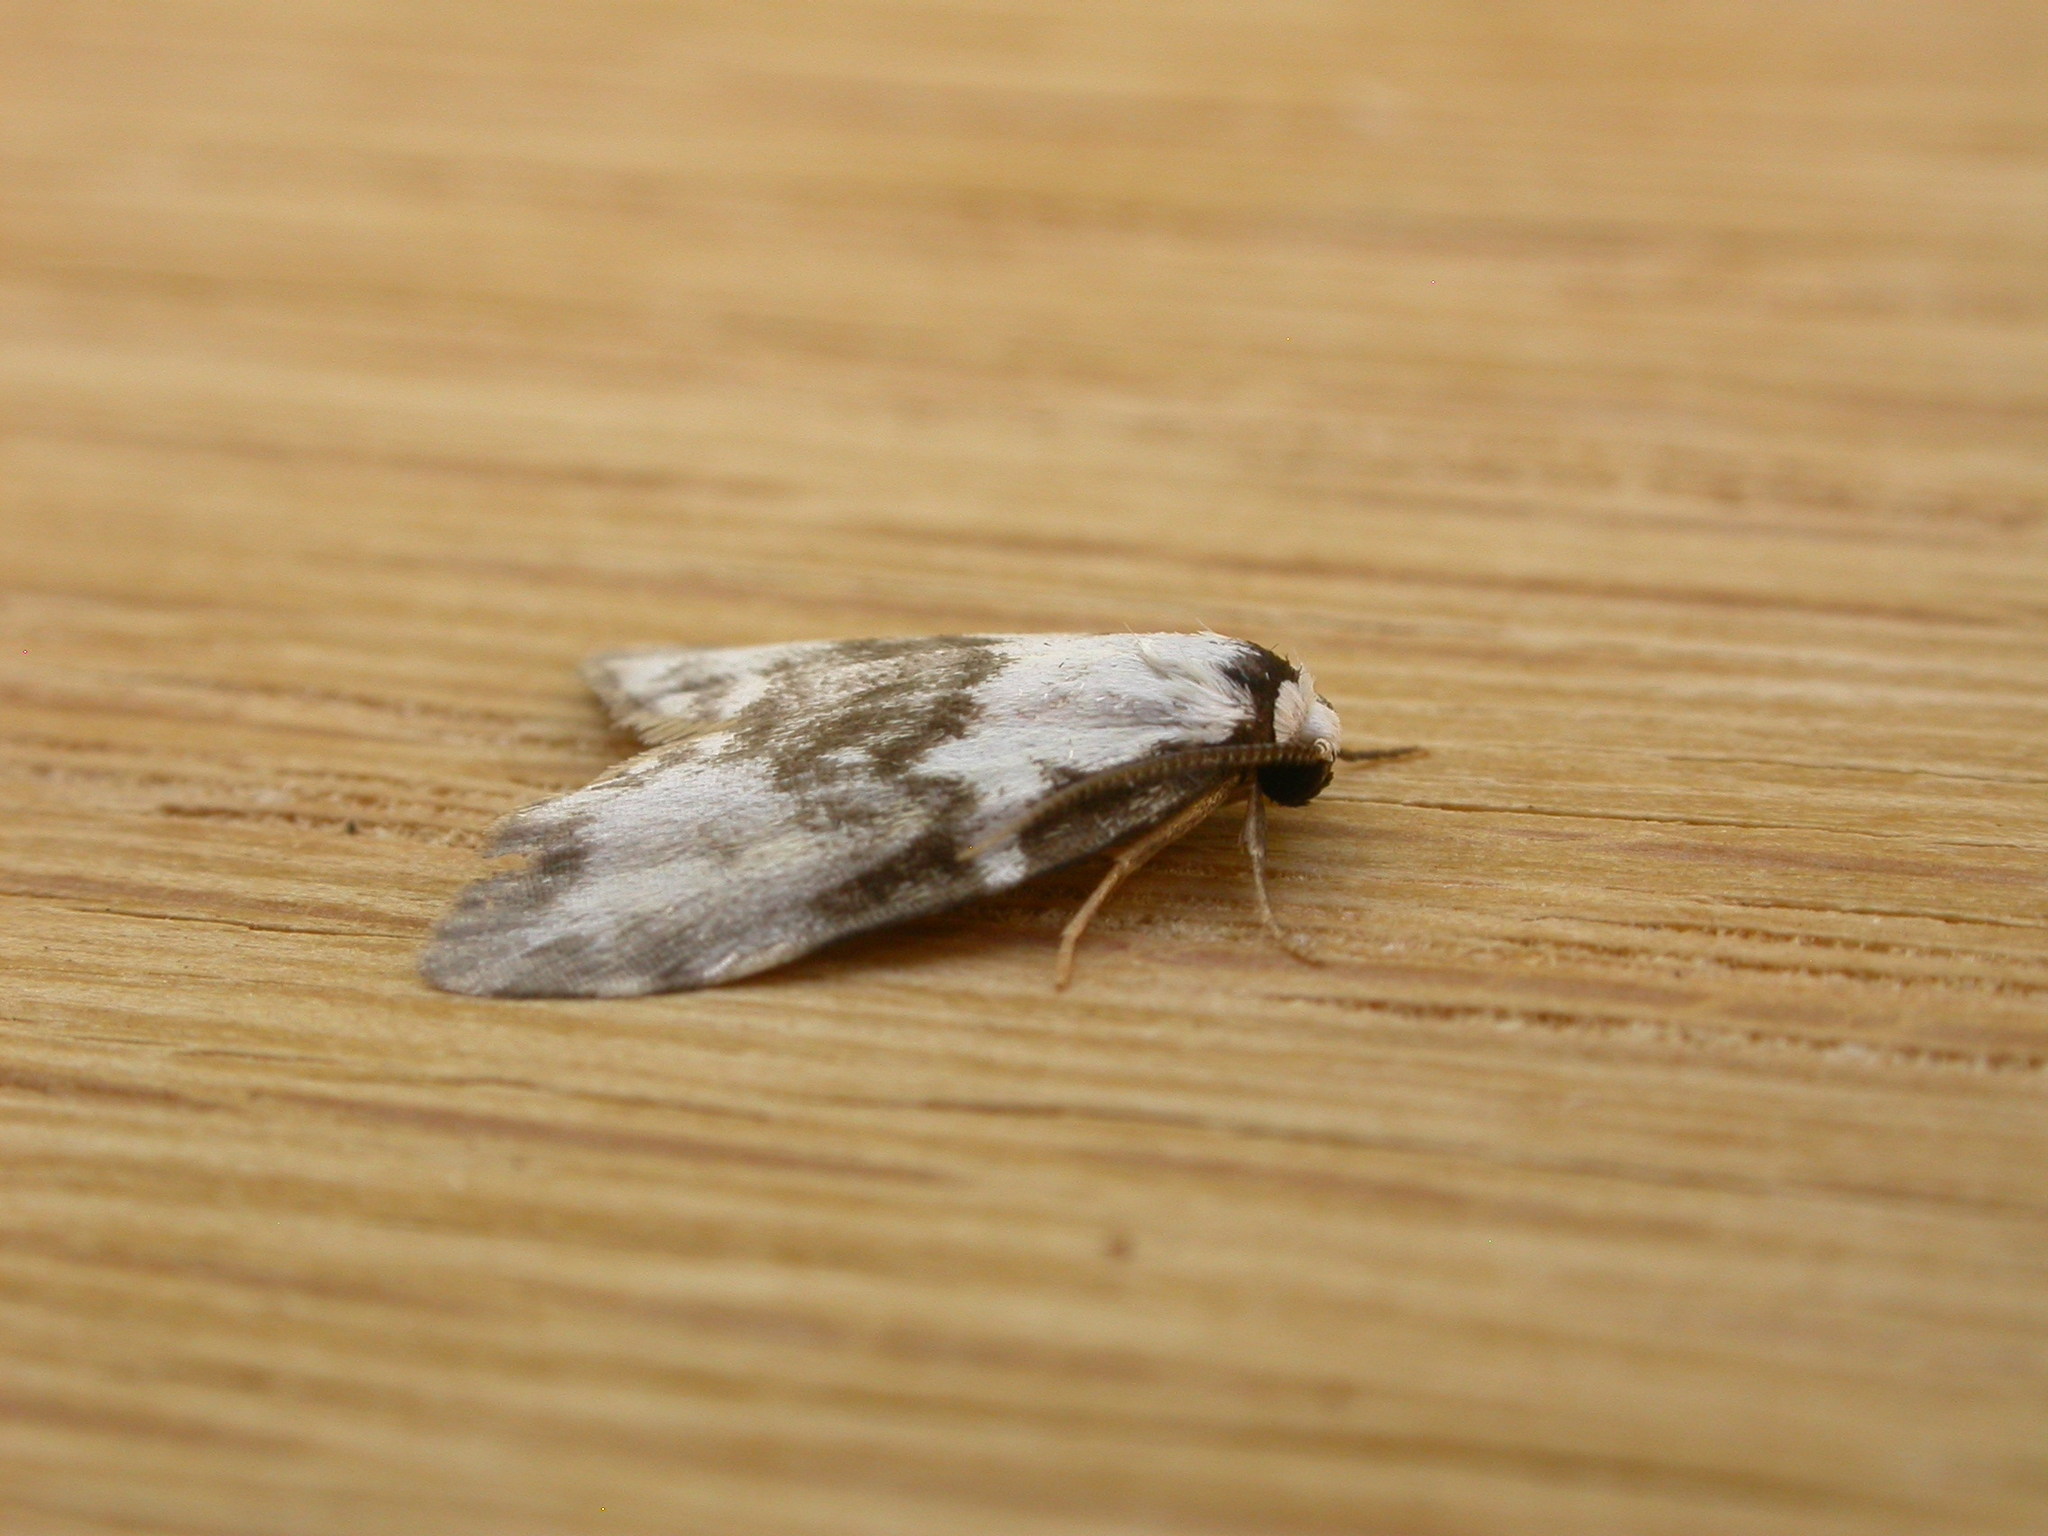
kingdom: Animalia
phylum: Arthropoda
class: Insecta
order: Lepidoptera
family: Erebidae
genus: Thallarcha
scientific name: Thallarcha epiostola
